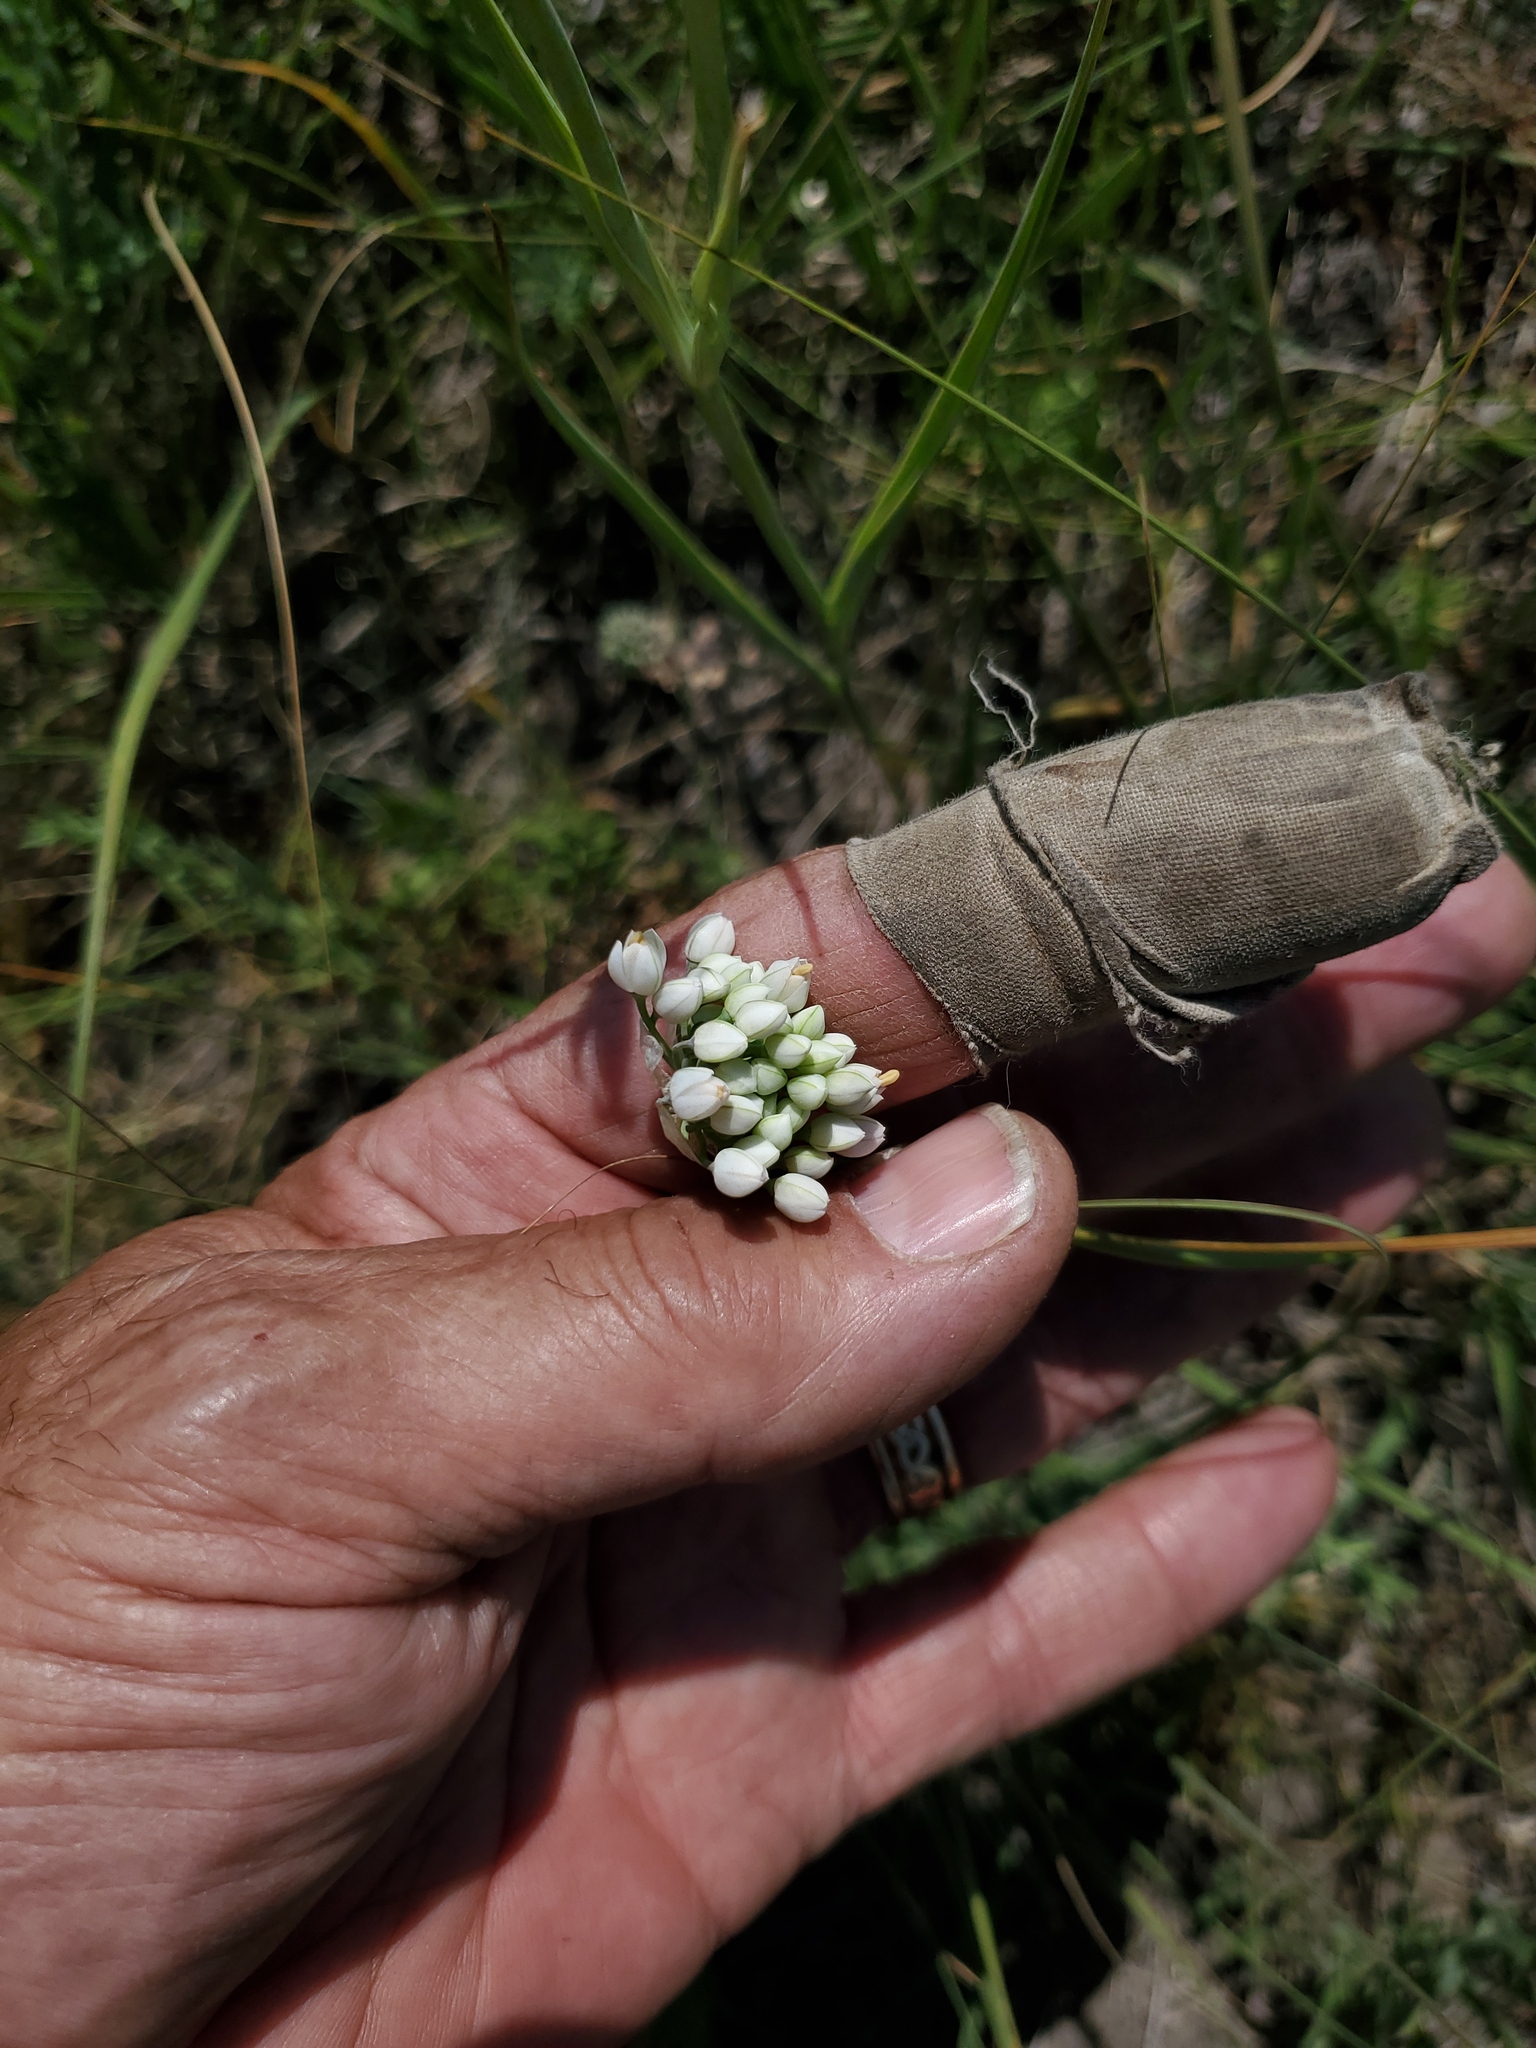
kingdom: Plantae
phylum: Tracheophyta
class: Liliopsida
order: Asparagales
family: Amaryllidaceae
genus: Allium
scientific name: Allium cernuum
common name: Nodding onion
